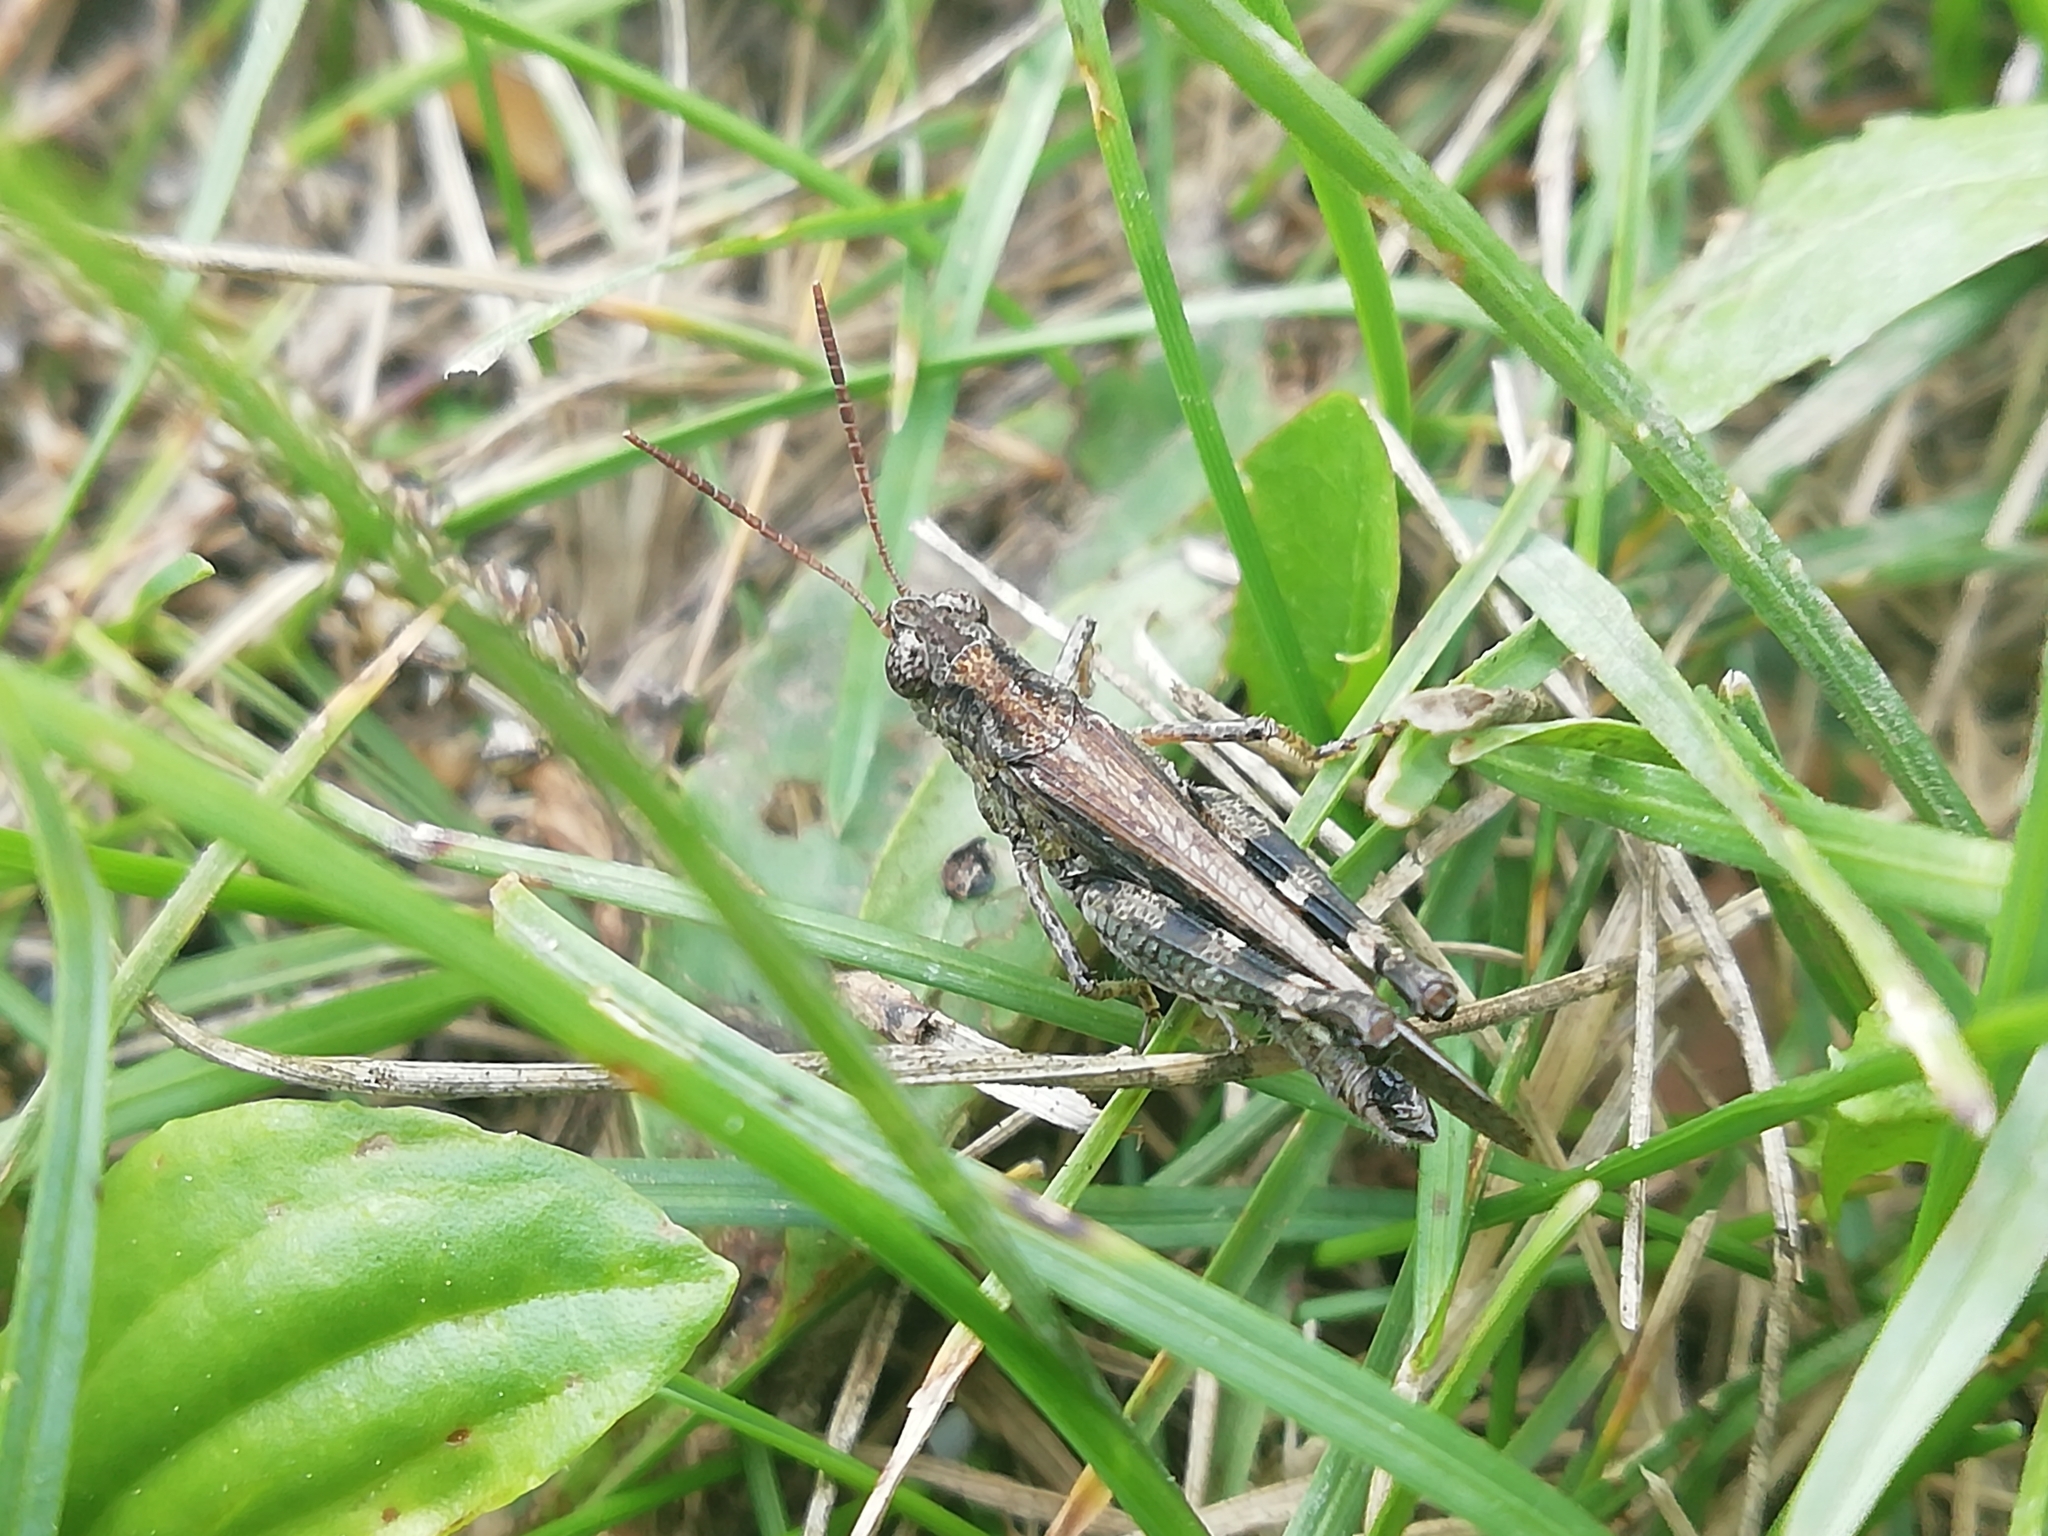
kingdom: Animalia
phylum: Arthropoda
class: Insecta
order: Orthoptera
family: Acrididae
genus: Epacromius
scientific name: Epacromius pulverulentus
